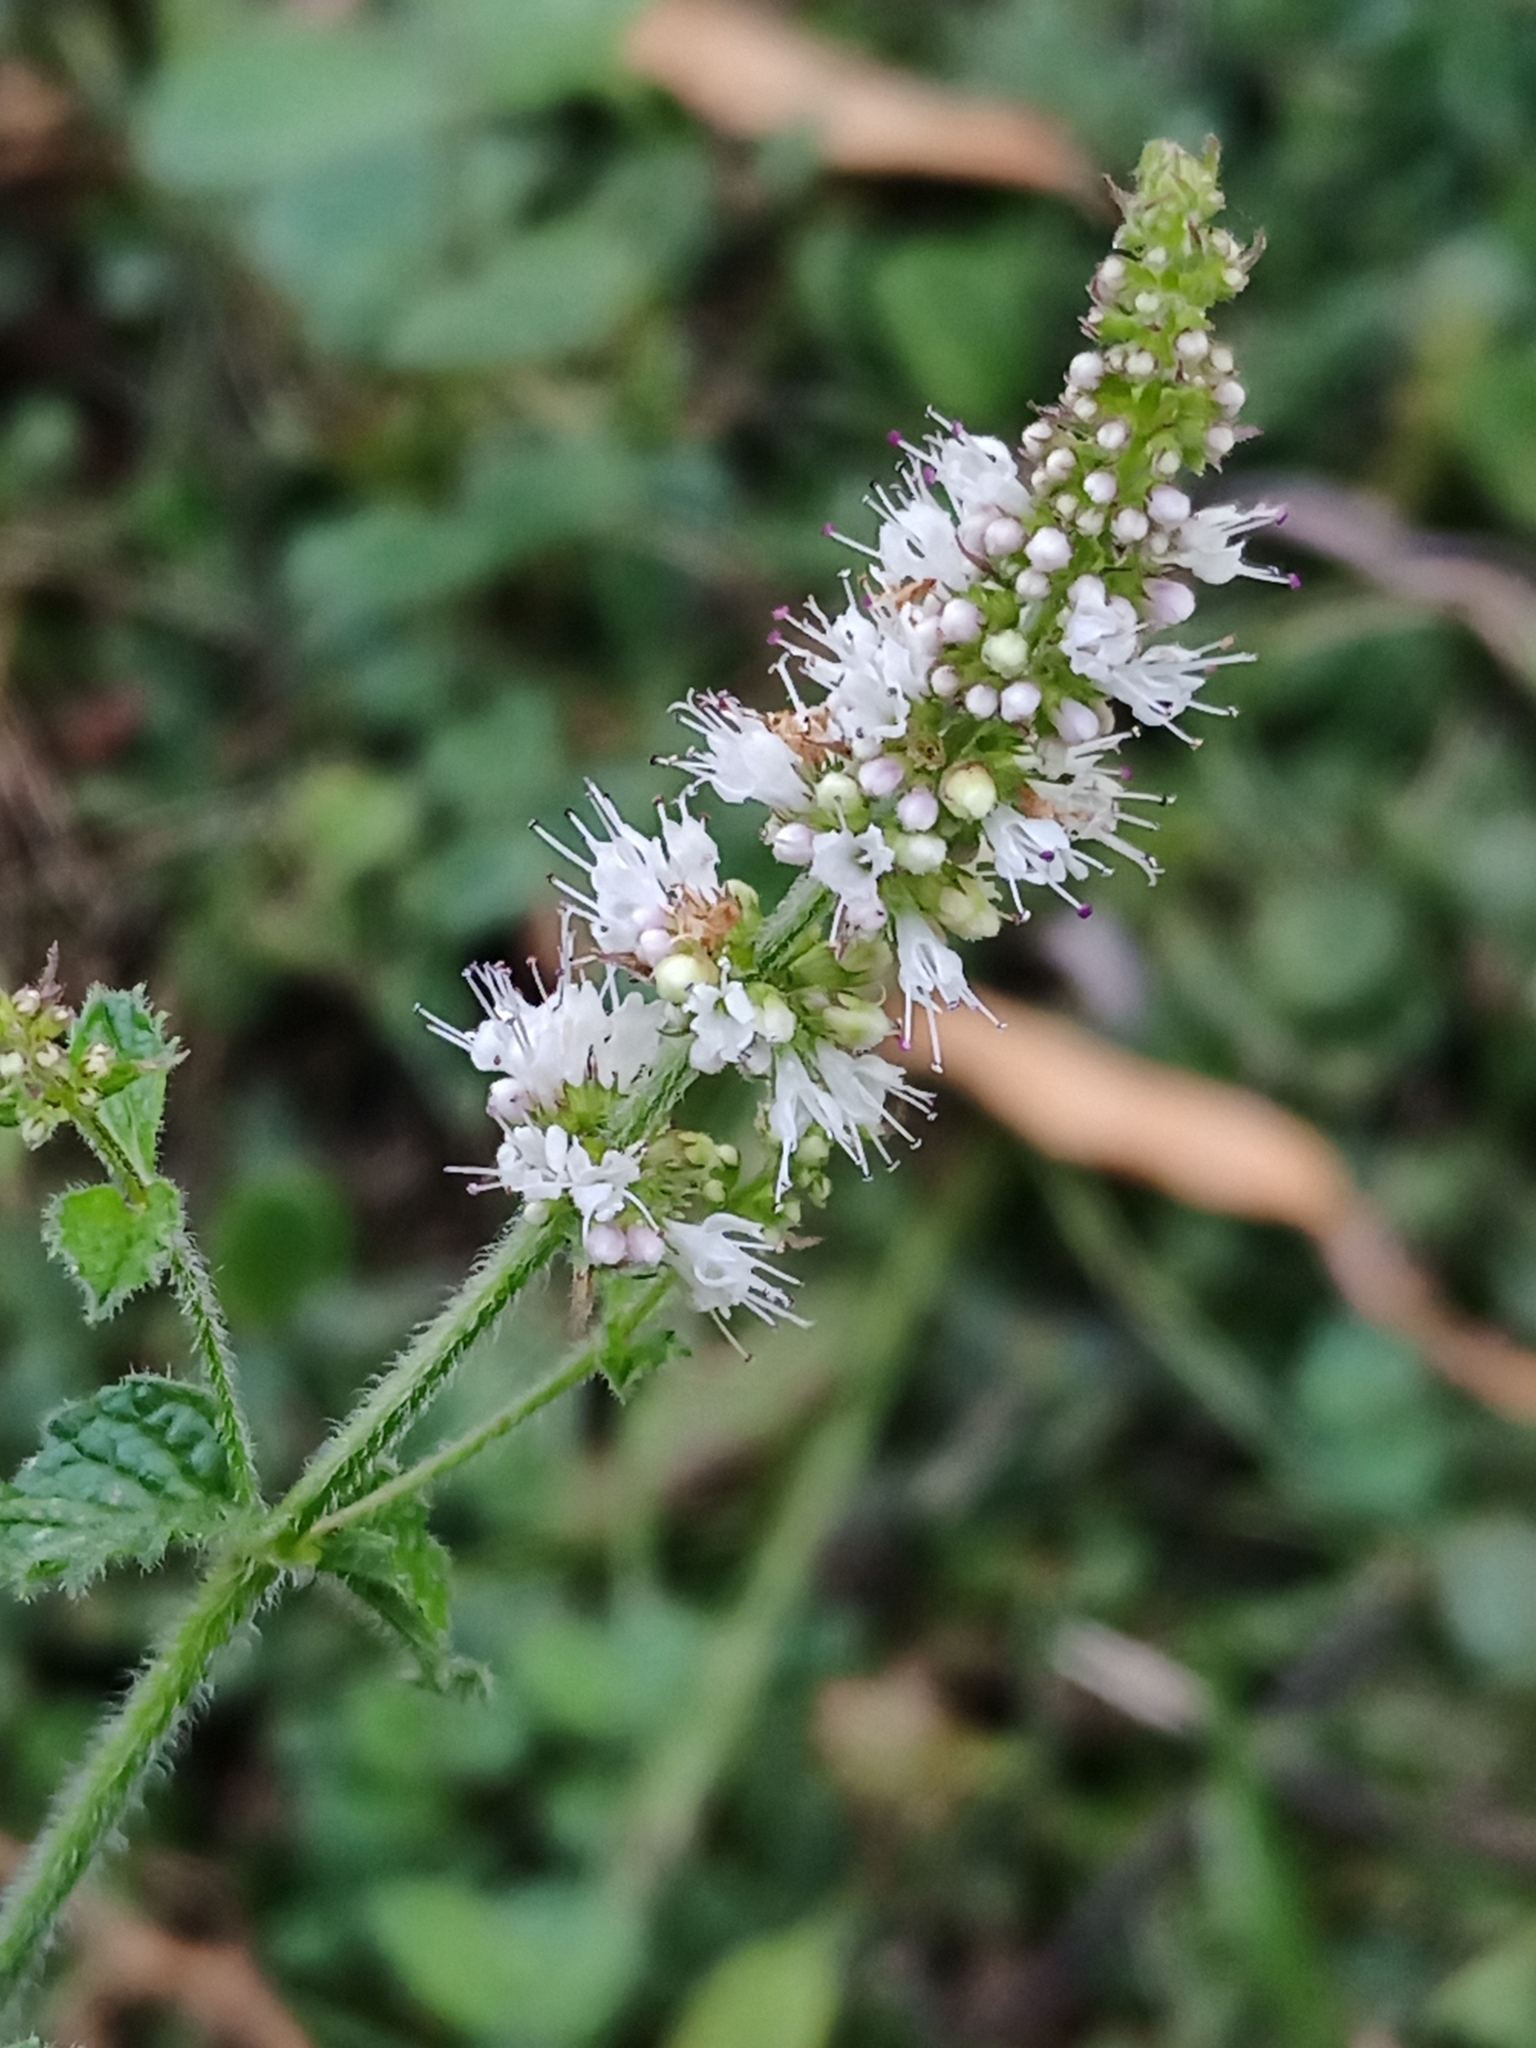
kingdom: Plantae
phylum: Tracheophyta
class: Magnoliopsida
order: Lamiales
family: Lamiaceae
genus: Mentha
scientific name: Mentha suaveolens
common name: Apple mint
